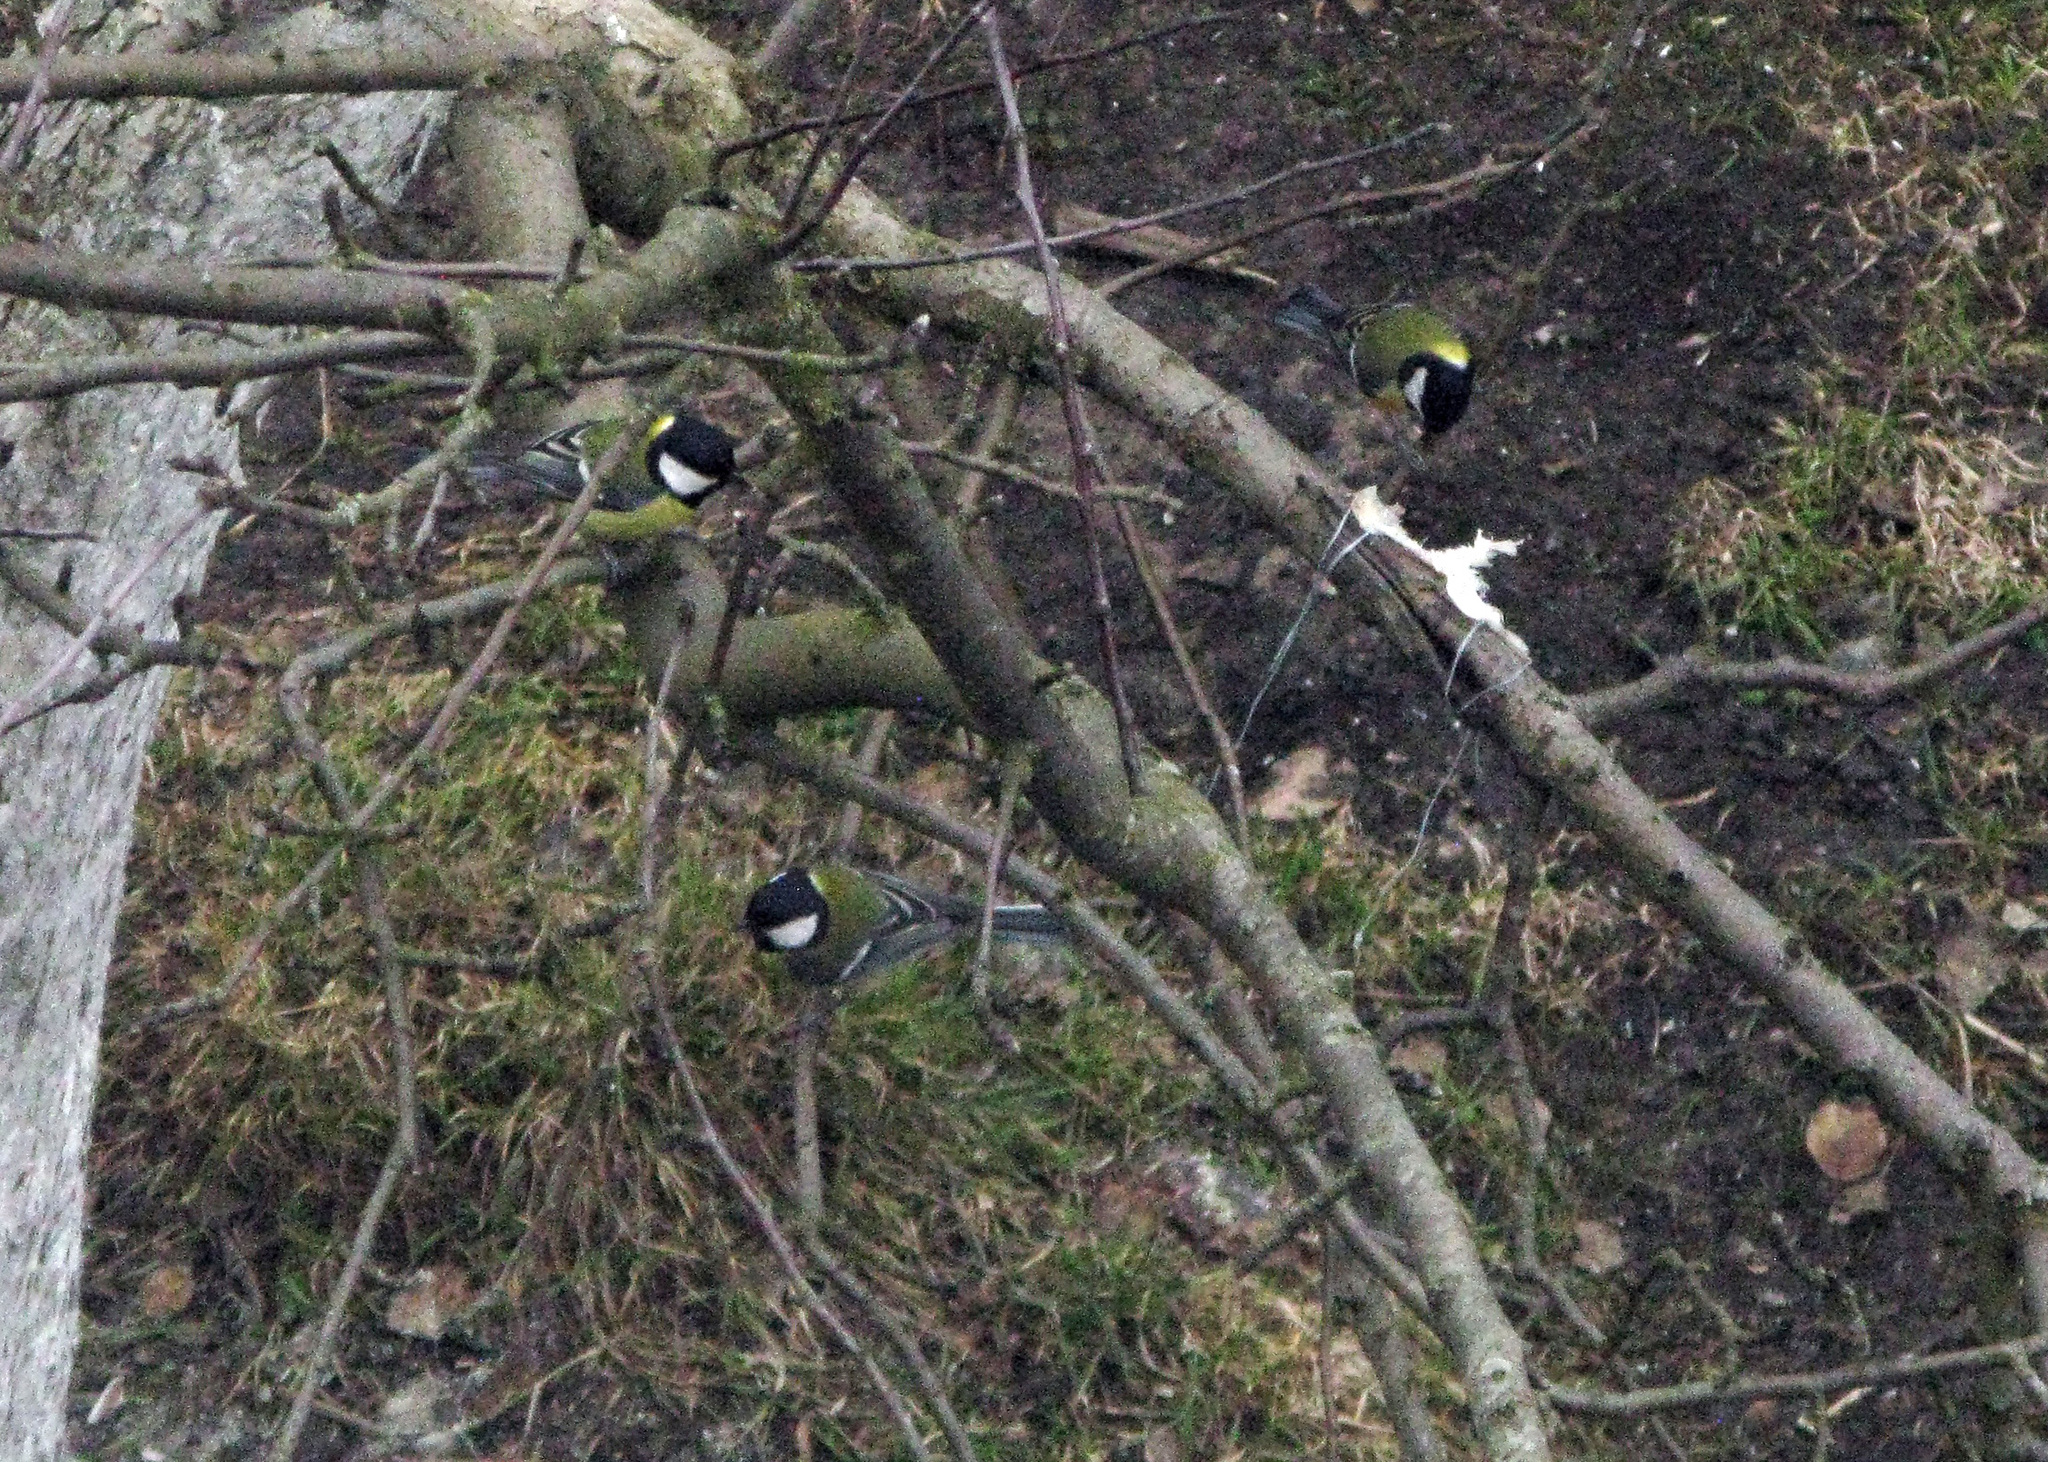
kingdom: Animalia
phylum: Chordata
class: Aves
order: Passeriformes
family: Paridae
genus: Parus
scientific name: Parus major
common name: Great tit
